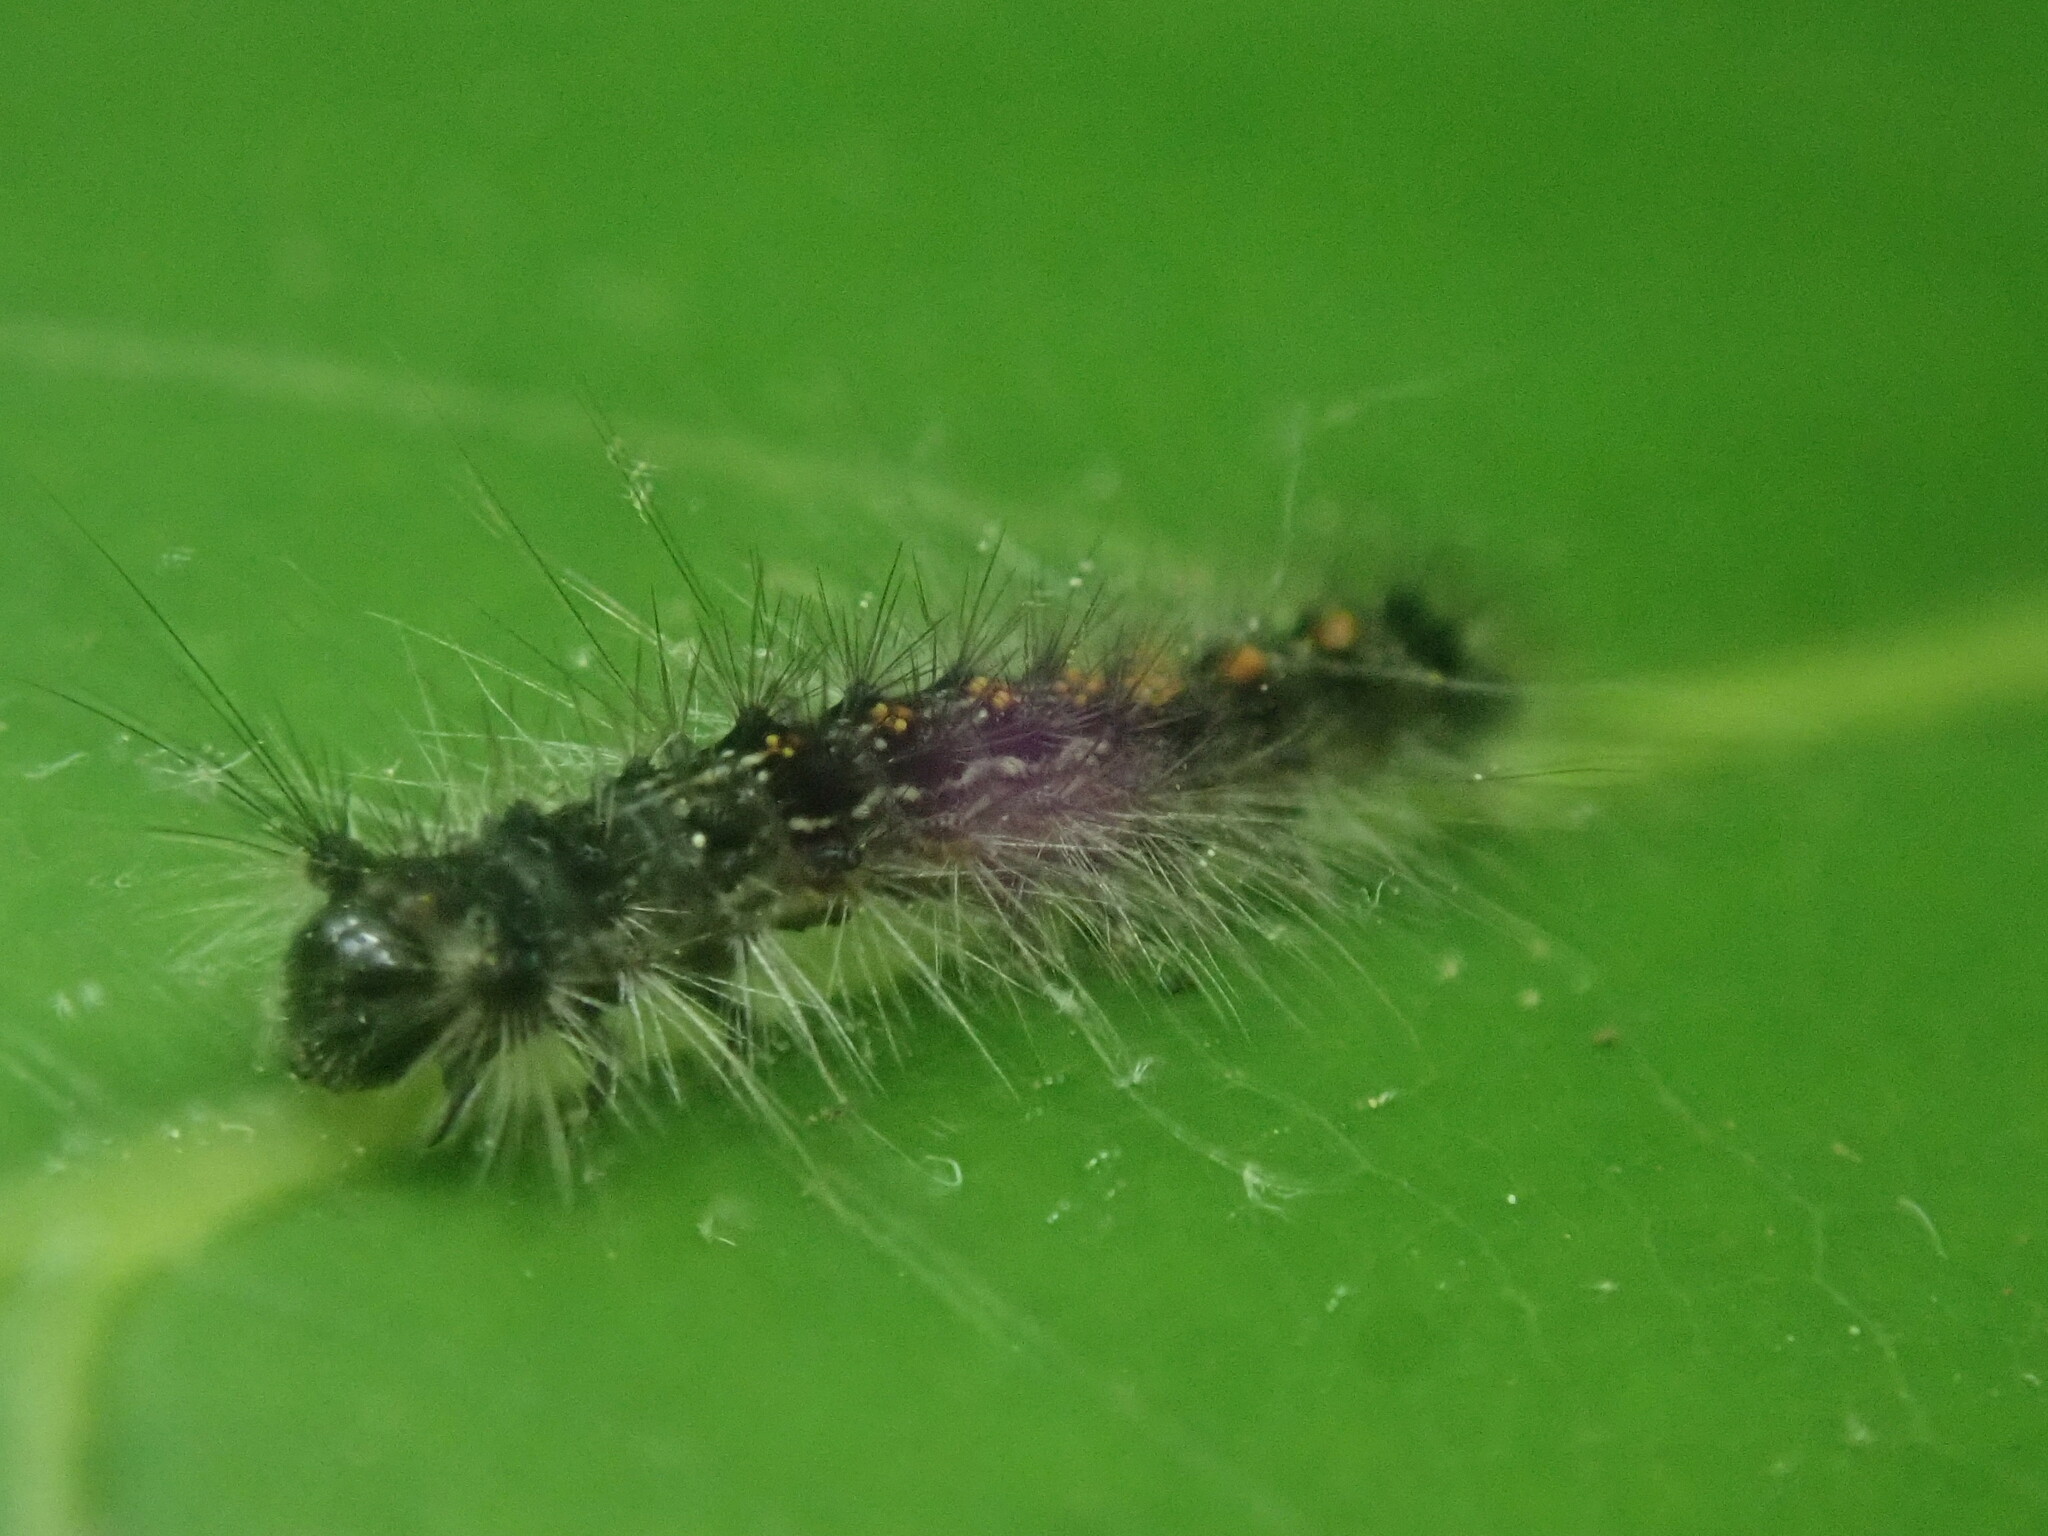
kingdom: Animalia
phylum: Arthropoda
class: Insecta
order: Lepidoptera
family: Erebidae
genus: Lymantria
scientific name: Lymantria dispar
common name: Gypsy moth
